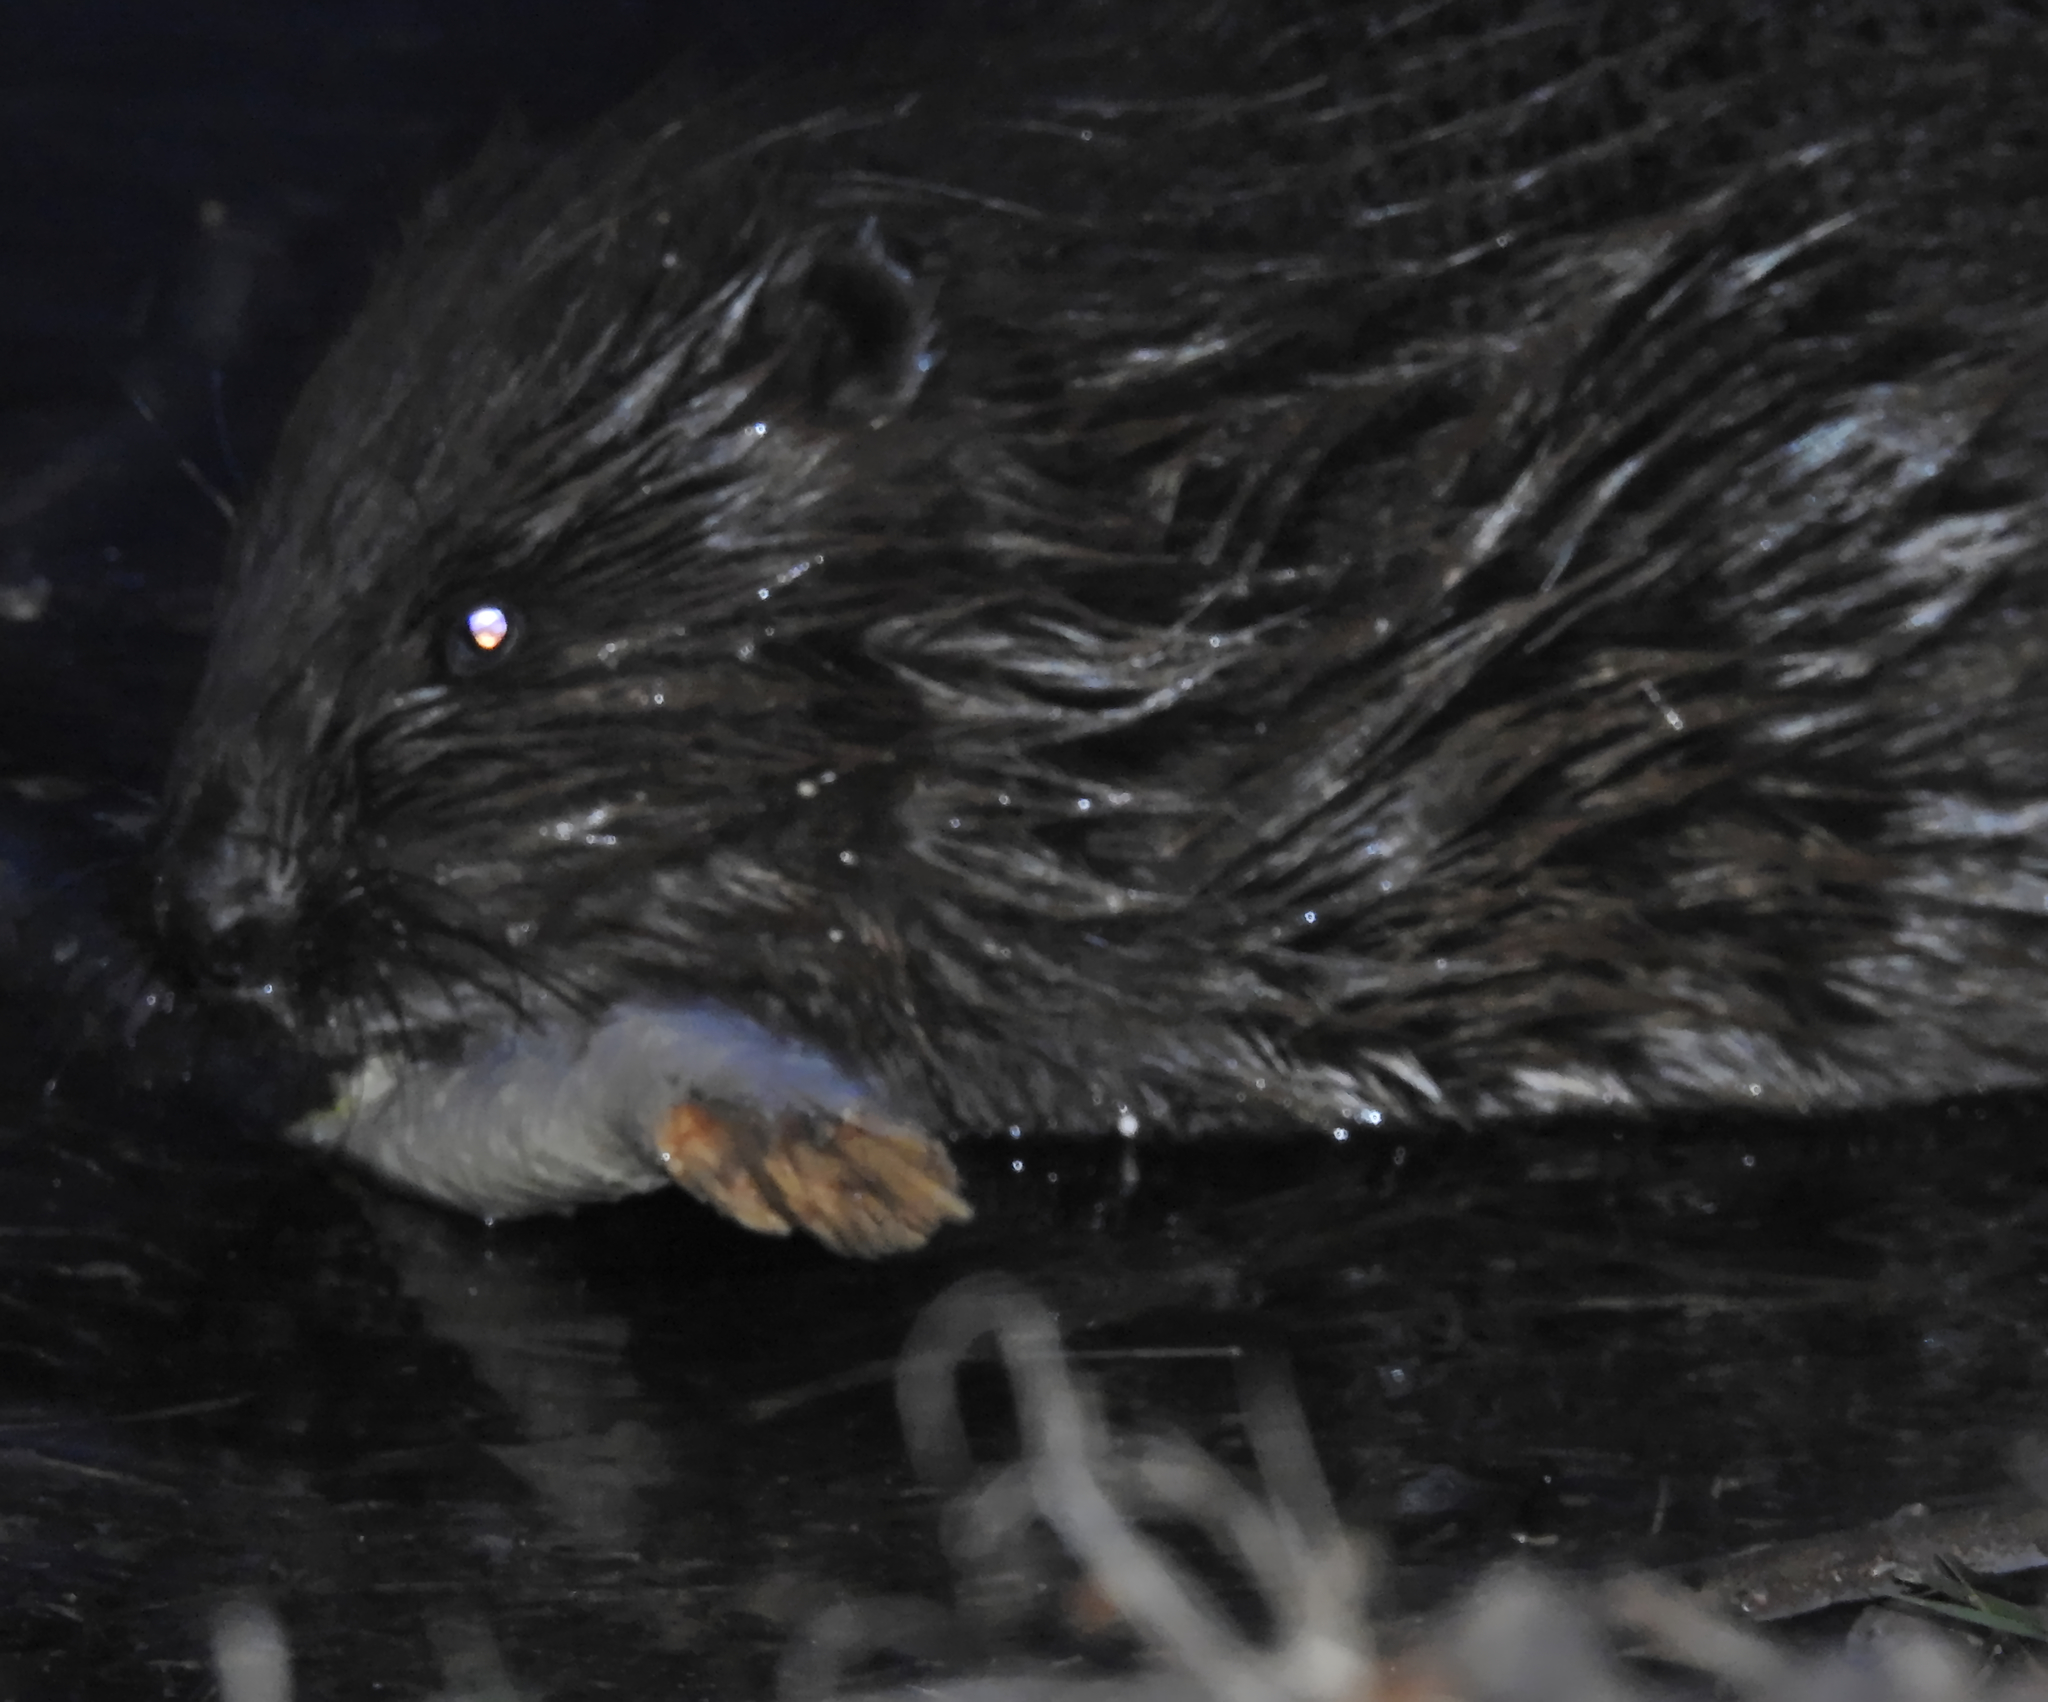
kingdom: Animalia
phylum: Chordata
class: Mammalia
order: Rodentia
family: Castoridae
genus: Castor
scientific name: Castor fiber
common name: Eurasian beaver
